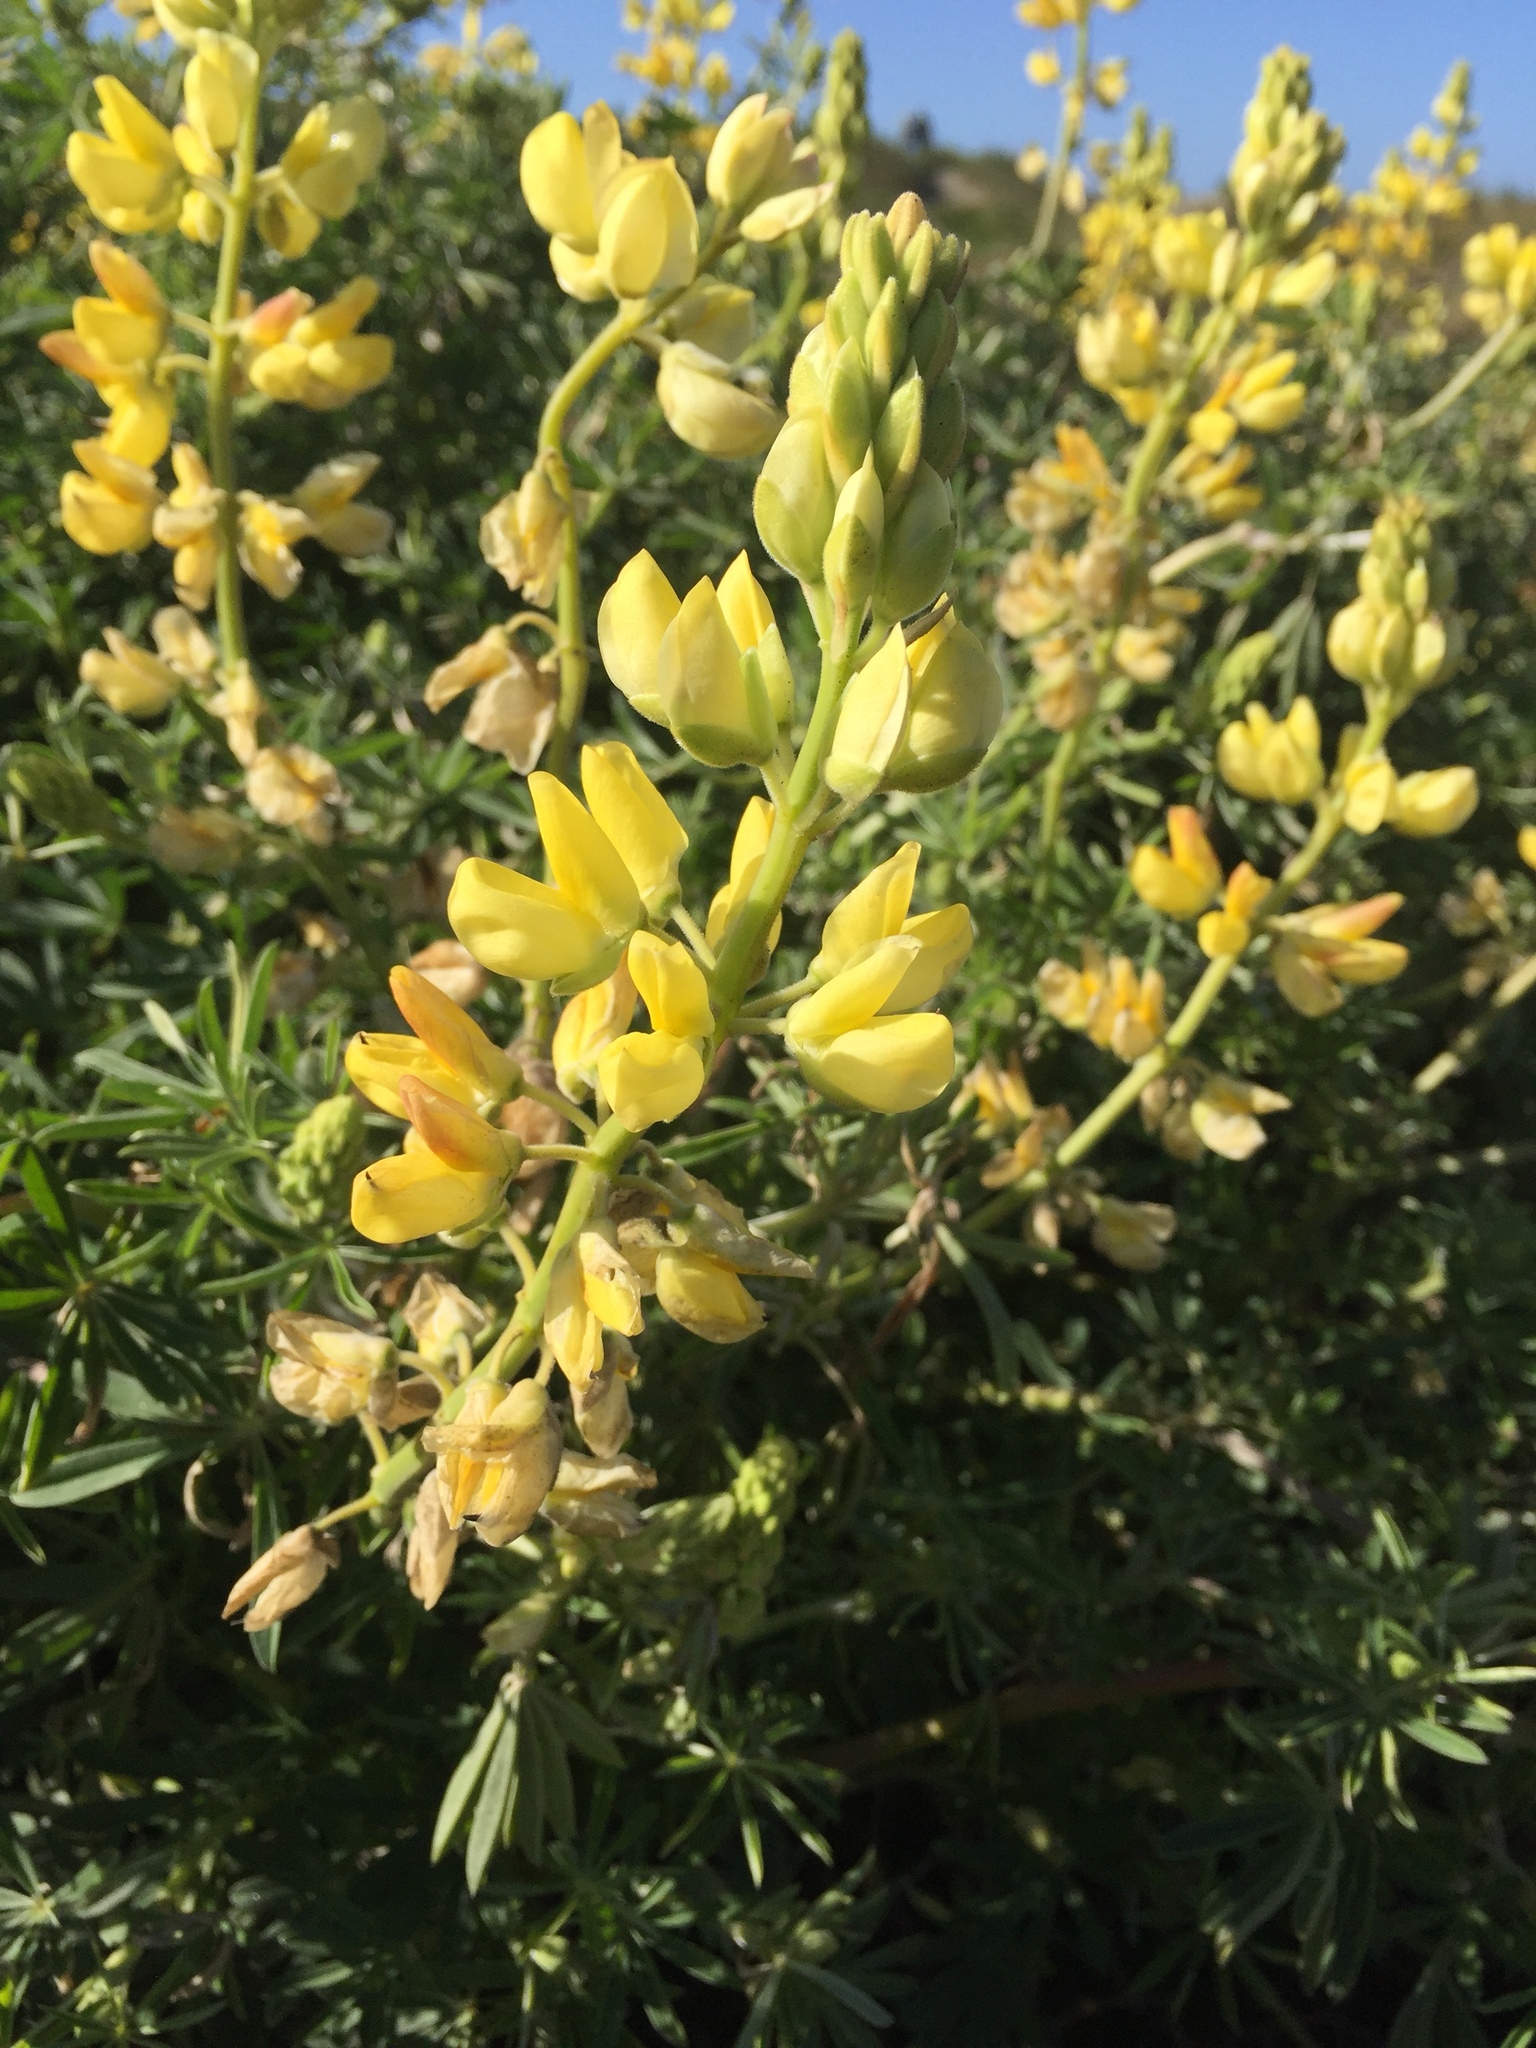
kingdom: Plantae
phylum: Tracheophyta
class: Magnoliopsida
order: Fabales
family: Fabaceae
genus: Lupinus
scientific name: Lupinus arboreus
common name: Yellow bush lupine
